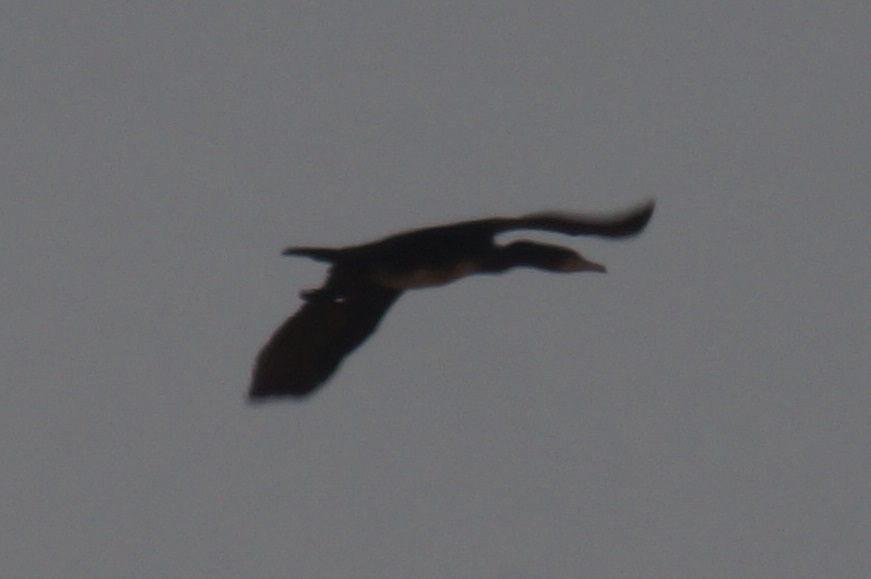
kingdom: Animalia
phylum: Chordata
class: Aves
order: Suliformes
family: Phalacrocoracidae
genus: Phalacrocorax
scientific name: Phalacrocorax carbo
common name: Great cormorant
